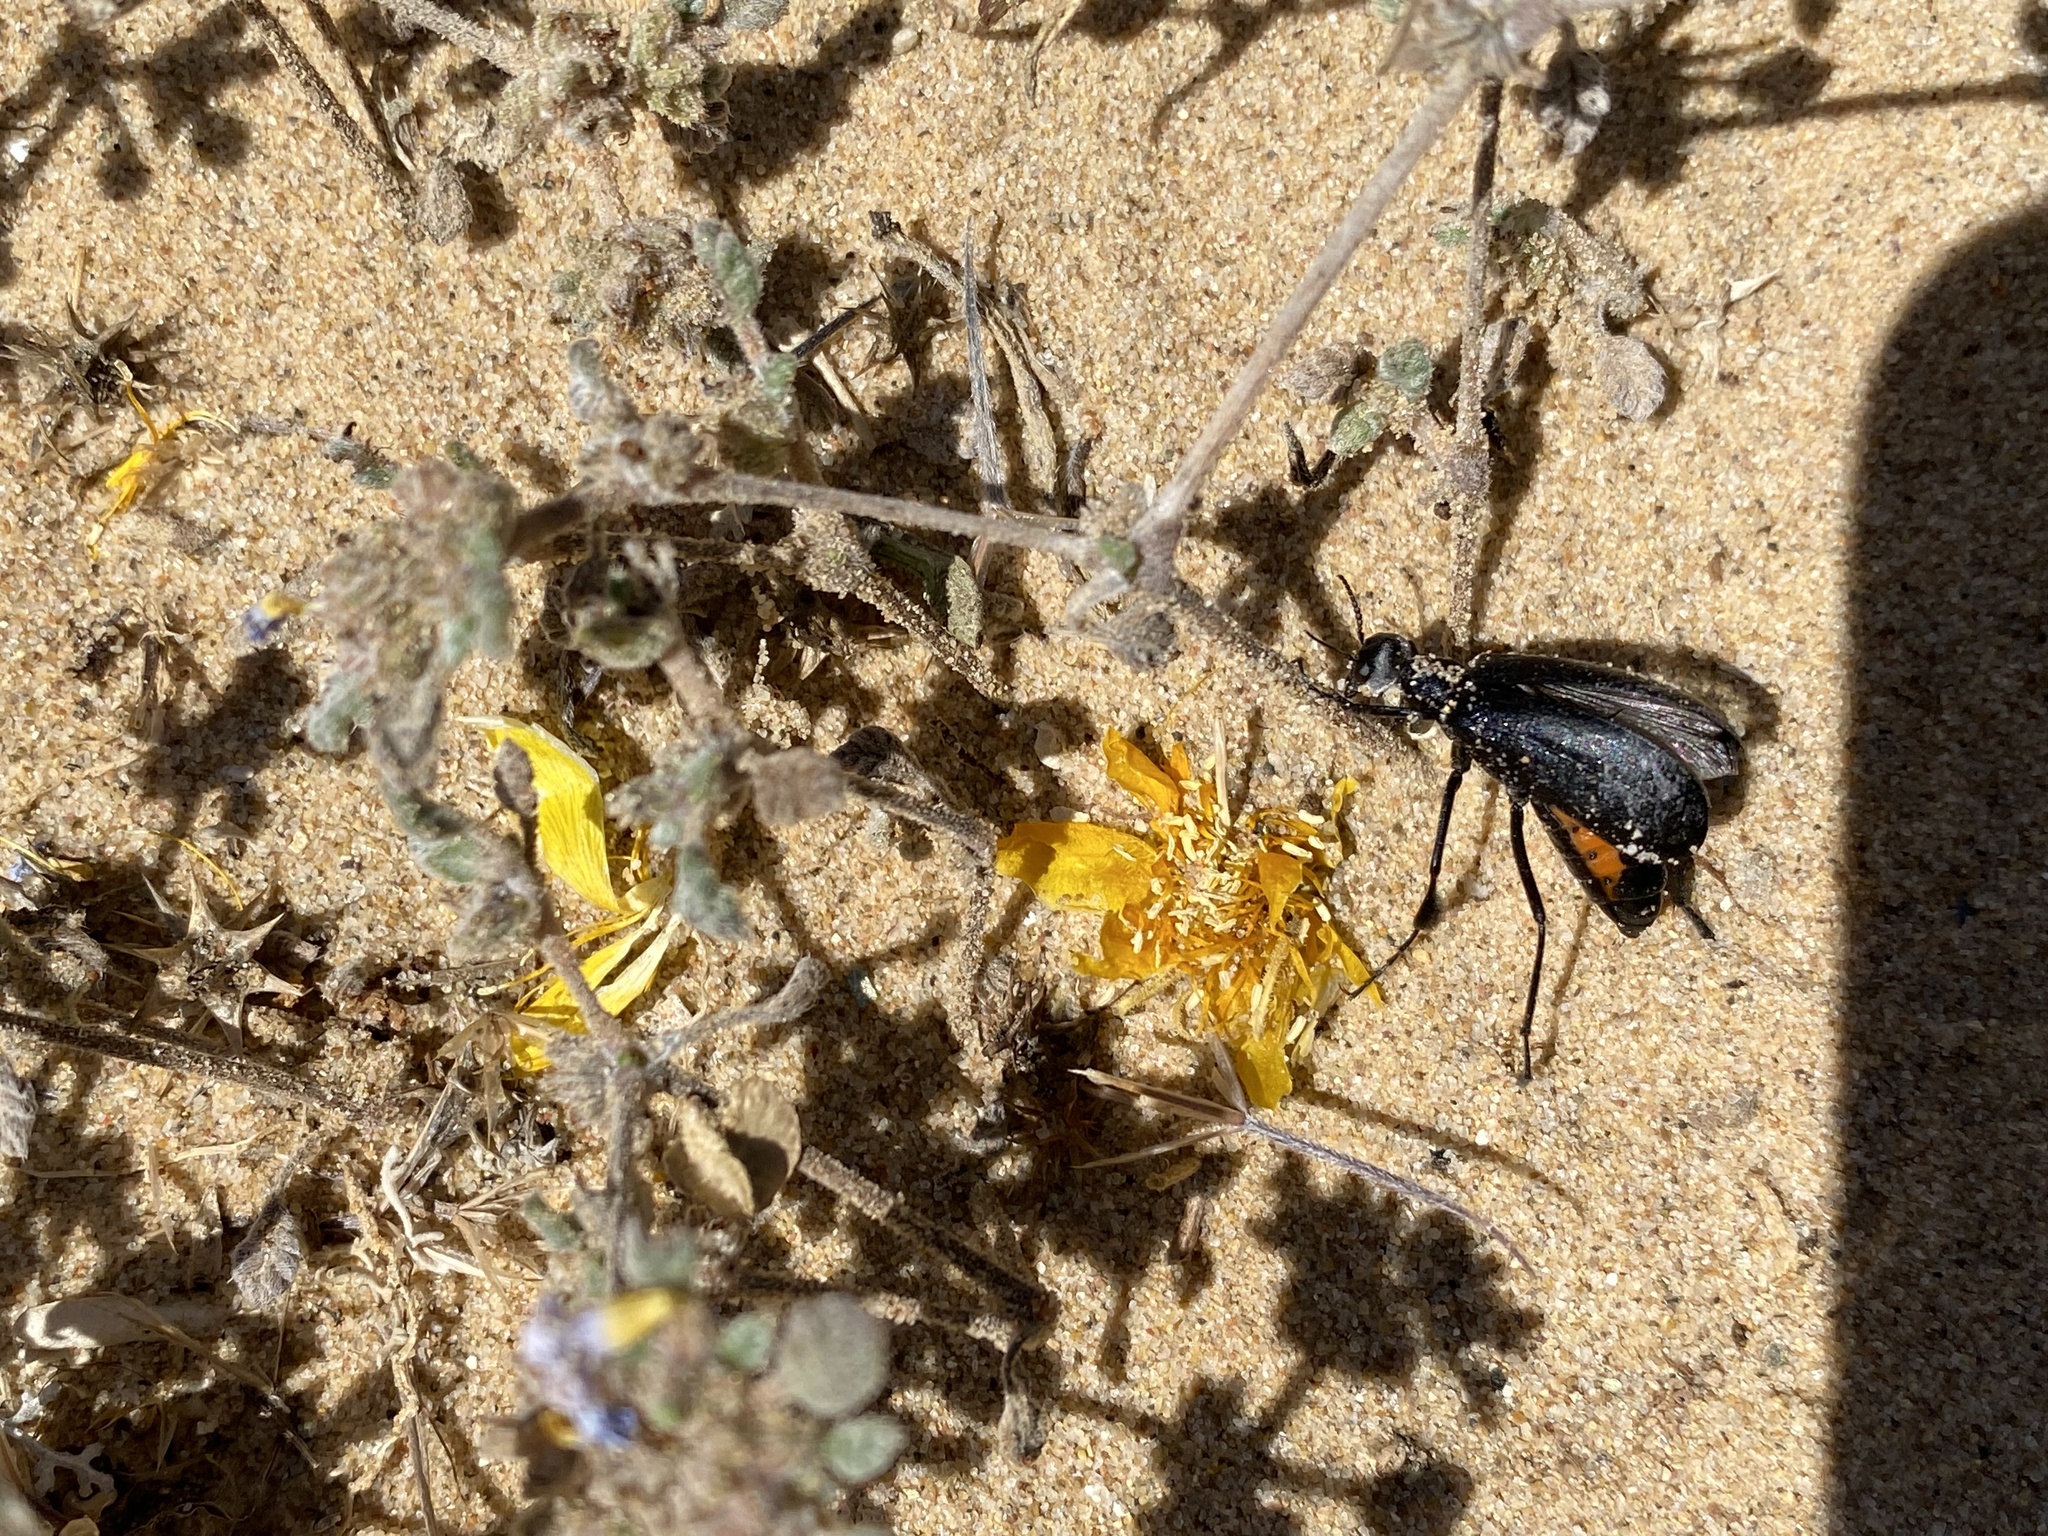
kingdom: Animalia
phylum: Arthropoda
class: Insecta
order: Coleoptera
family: Meloidae
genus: Phodaga
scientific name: Phodaga alticeps
